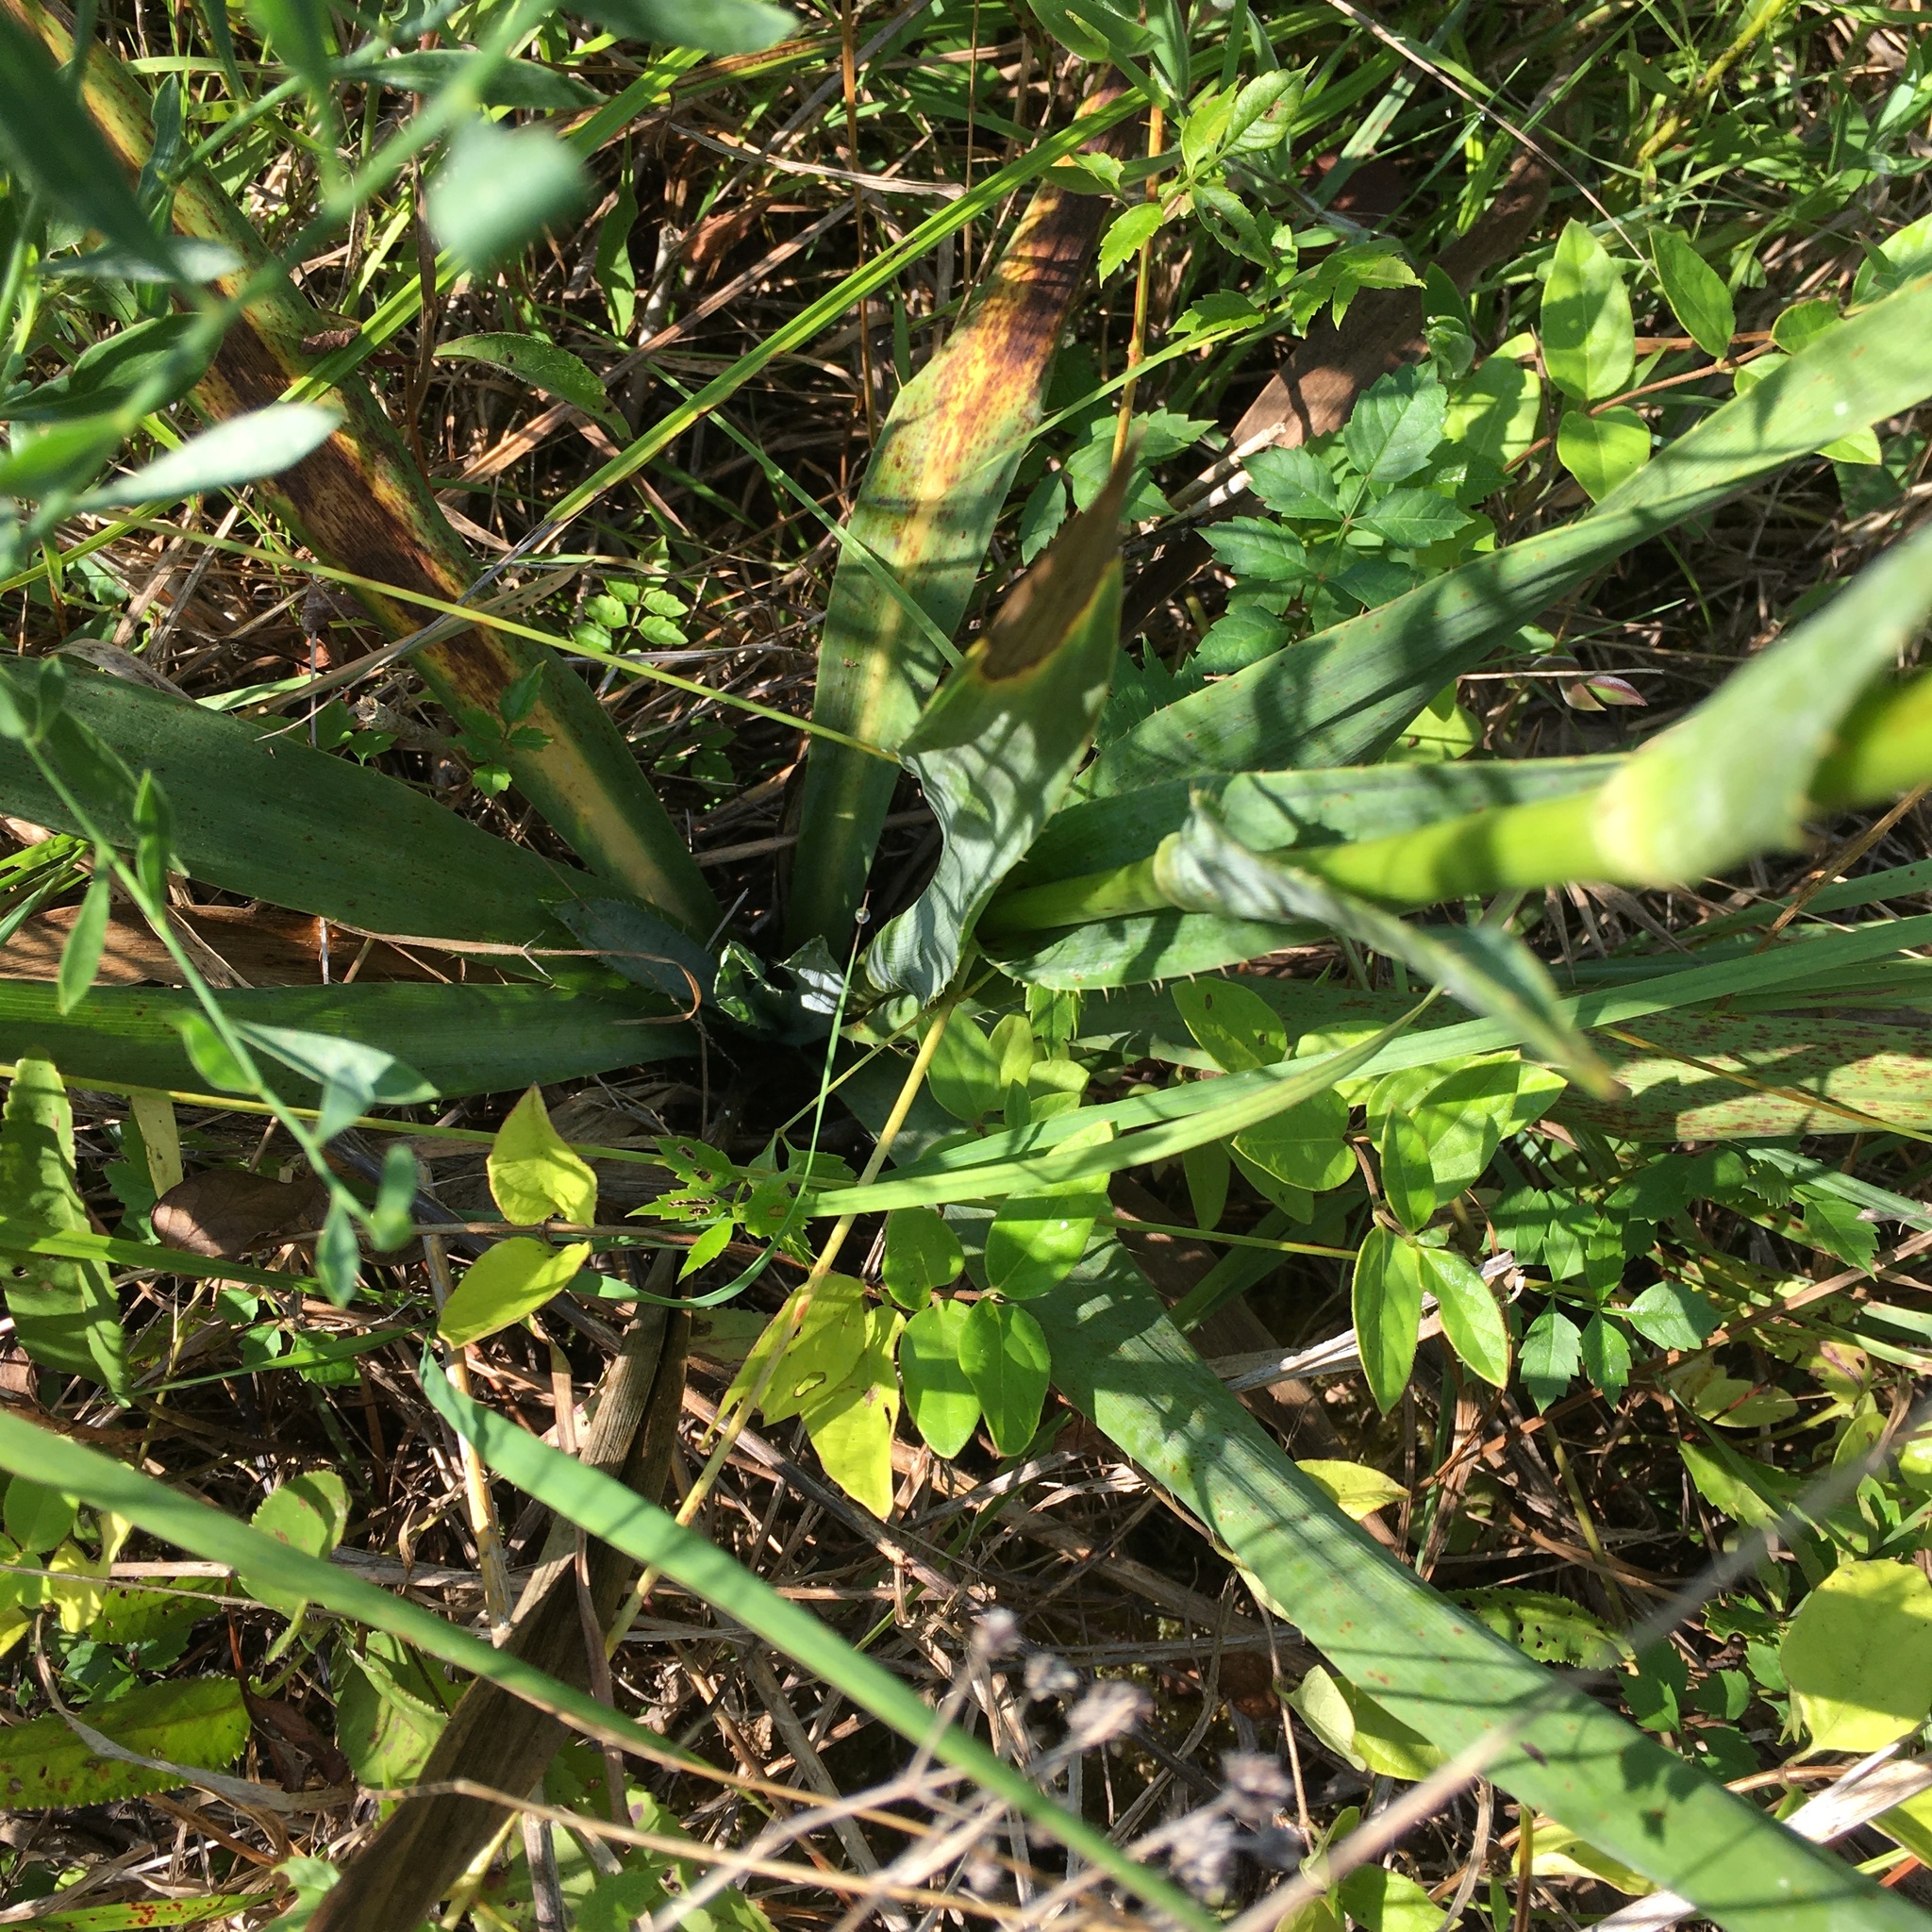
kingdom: Plantae
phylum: Tracheophyta
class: Magnoliopsida
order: Apiales
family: Apiaceae
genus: Eryngium
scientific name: Eryngium yuccifolium
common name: Button eryngo
